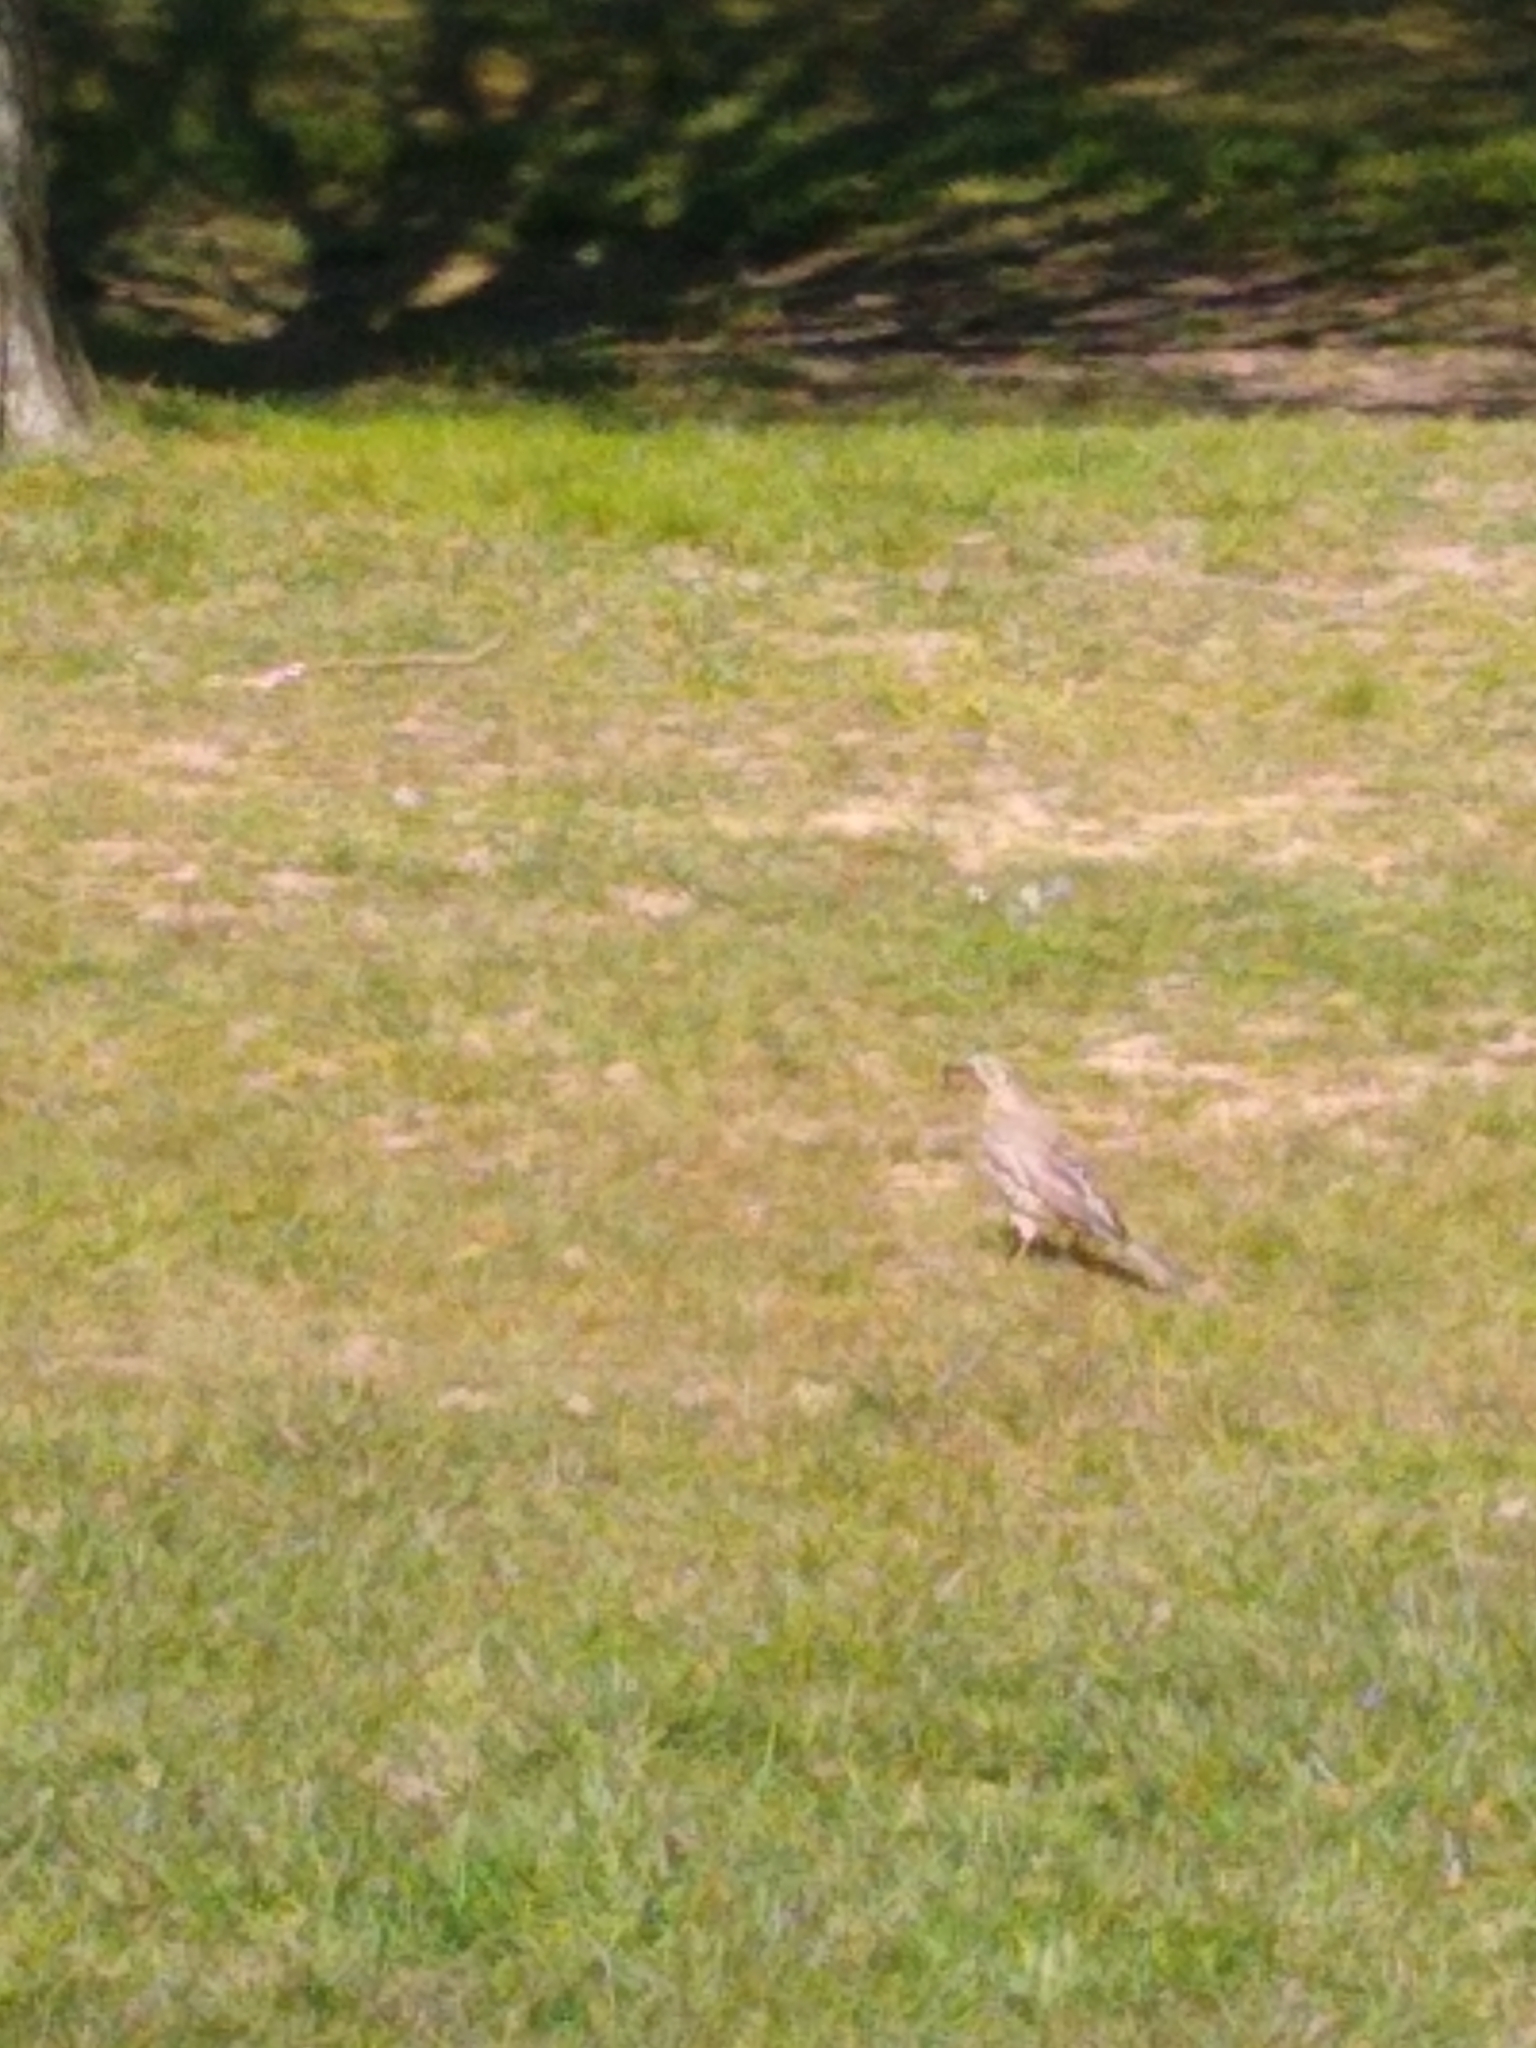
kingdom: Animalia
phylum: Chordata
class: Aves
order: Passeriformes
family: Turdidae
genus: Turdus
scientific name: Turdus viscivorus
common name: Mistle thrush
